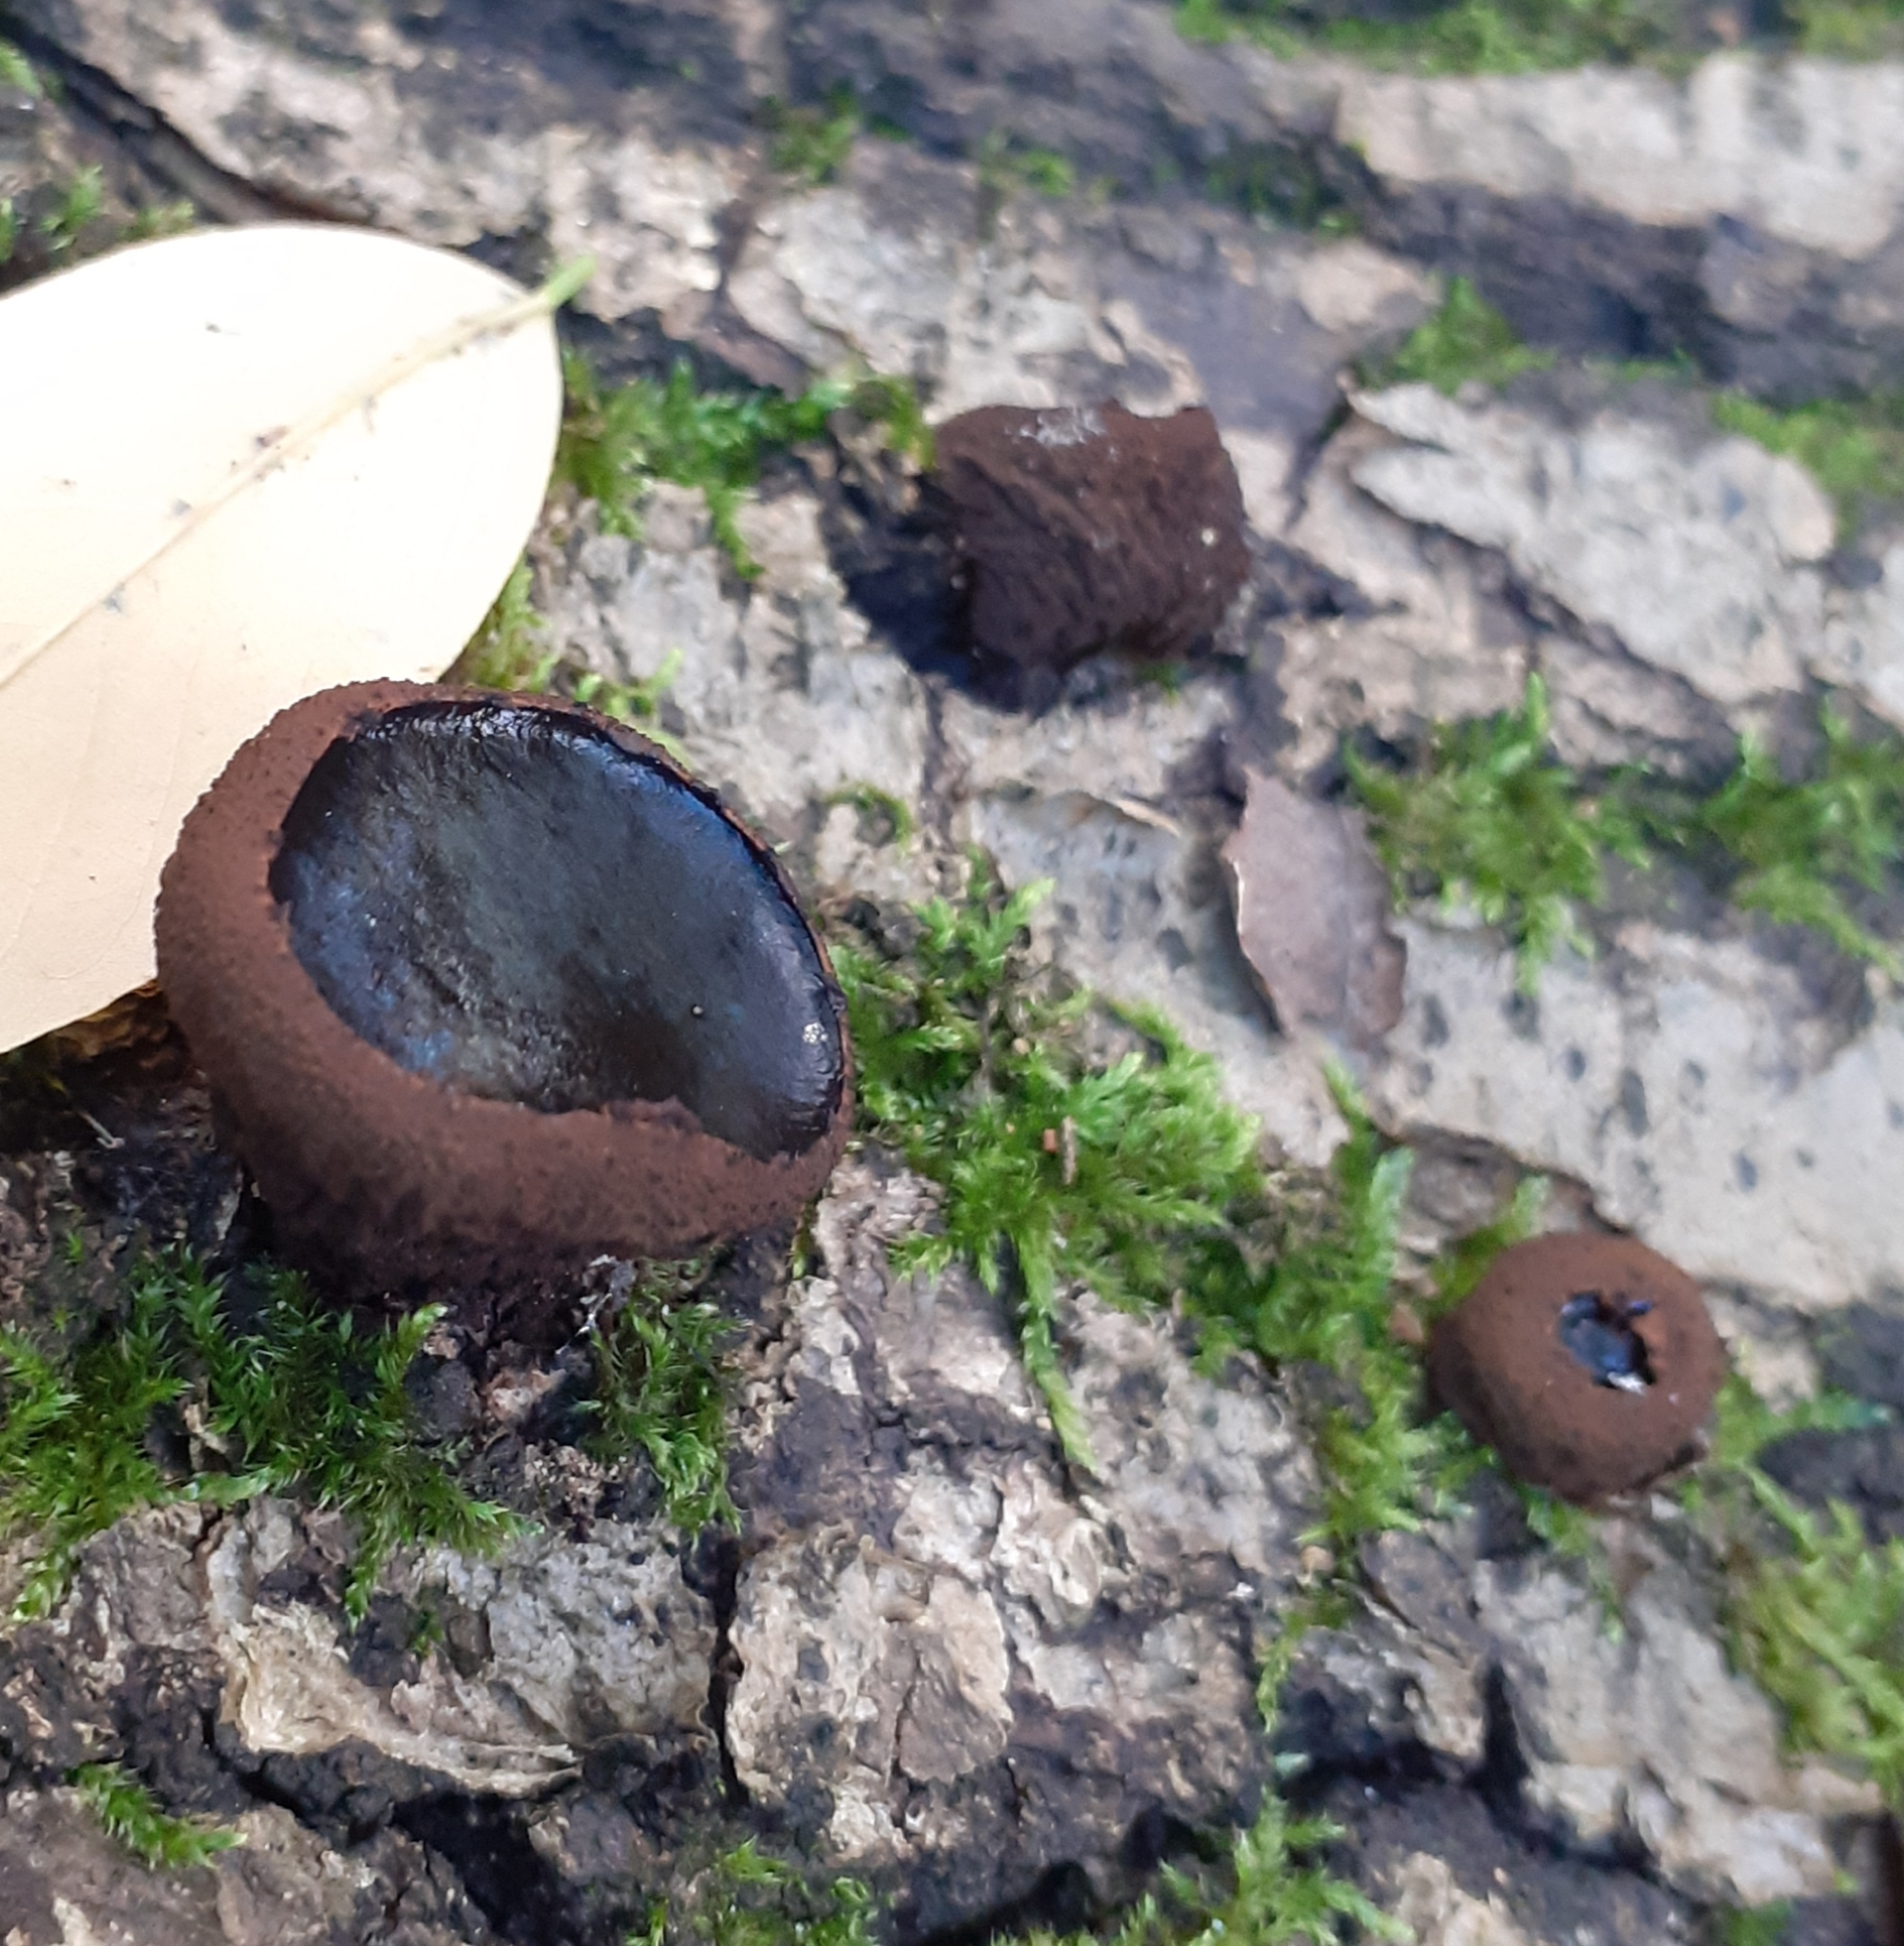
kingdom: Fungi
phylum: Ascomycota
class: Leotiomycetes
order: Phacidiales
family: Phacidiaceae
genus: Bulgaria
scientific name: Bulgaria inquinans
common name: Black bulgar
